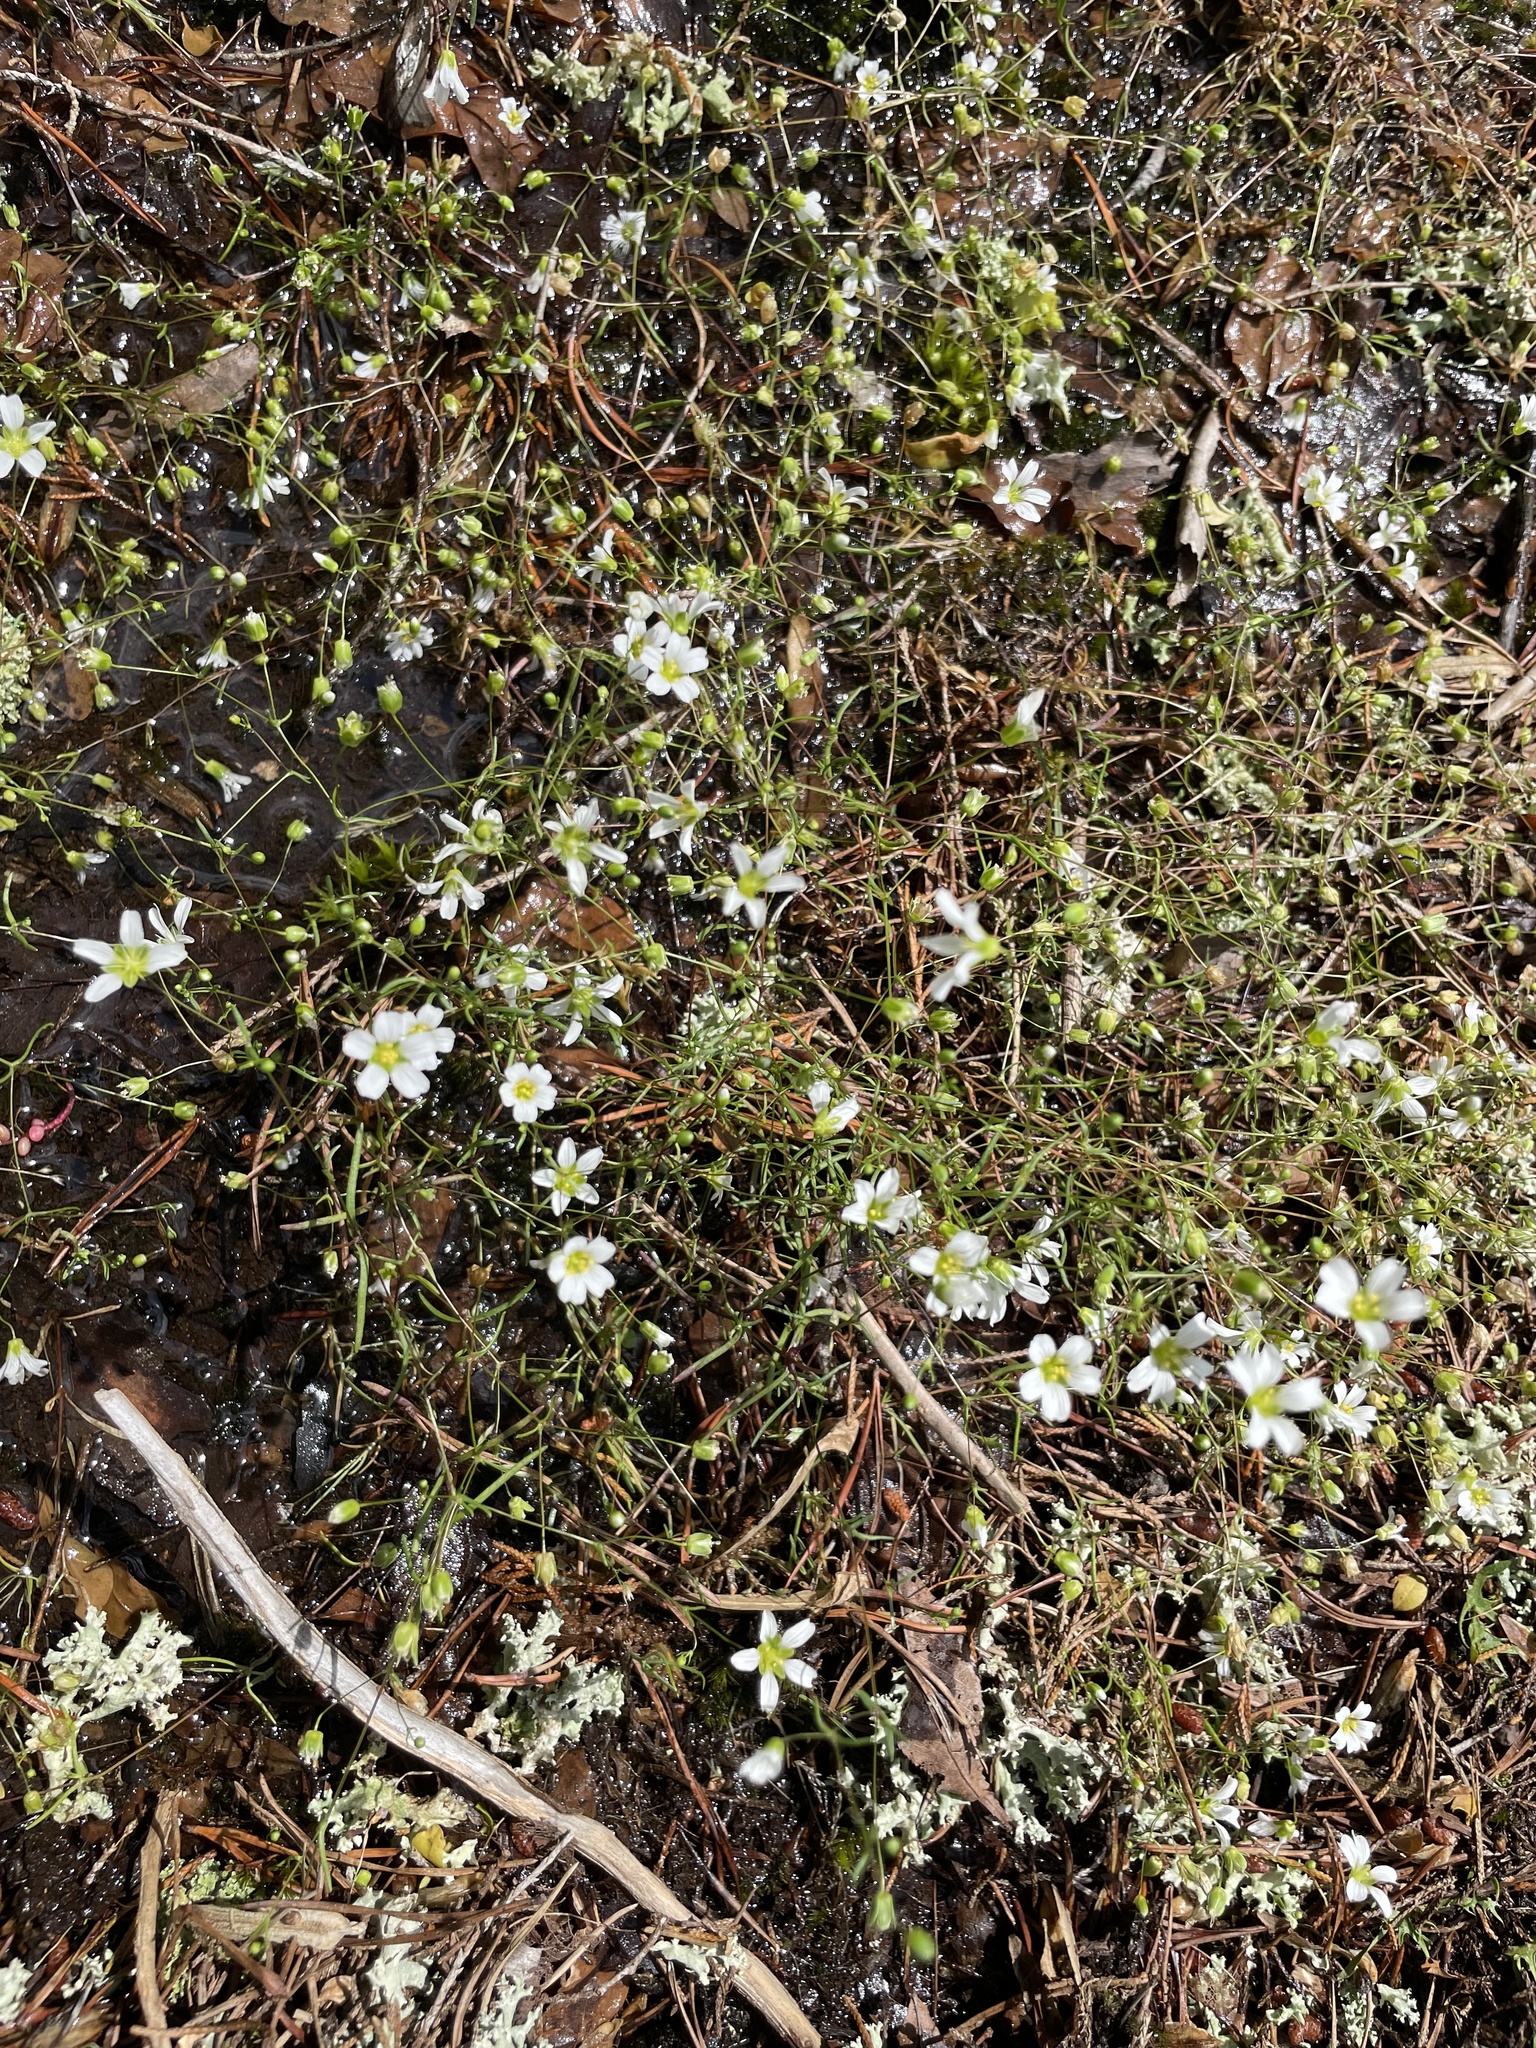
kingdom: Plantae
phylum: Tracheophyta
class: Magnoliopsida
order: Caryophyllales
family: Caryophyllaceae
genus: Geocarpon
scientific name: Geocarpon glabrum
